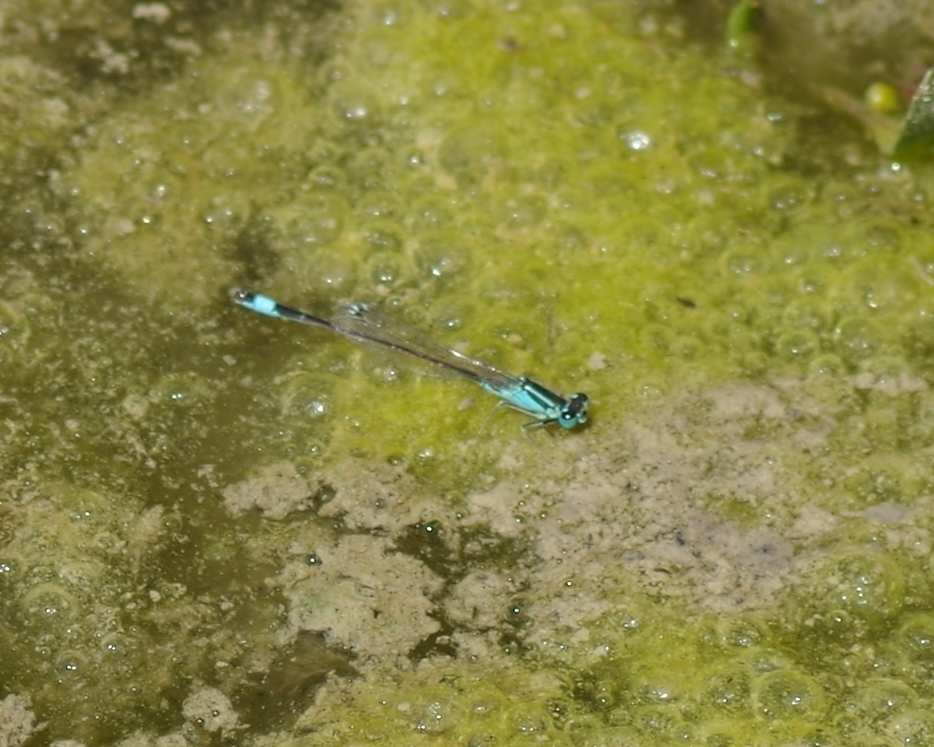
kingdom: Animalia
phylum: Arthropoda
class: Insecta
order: Odonata
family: Coenagrionidae
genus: Ischnura
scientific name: Ischnura elegans
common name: Blue-tailed damselfly
